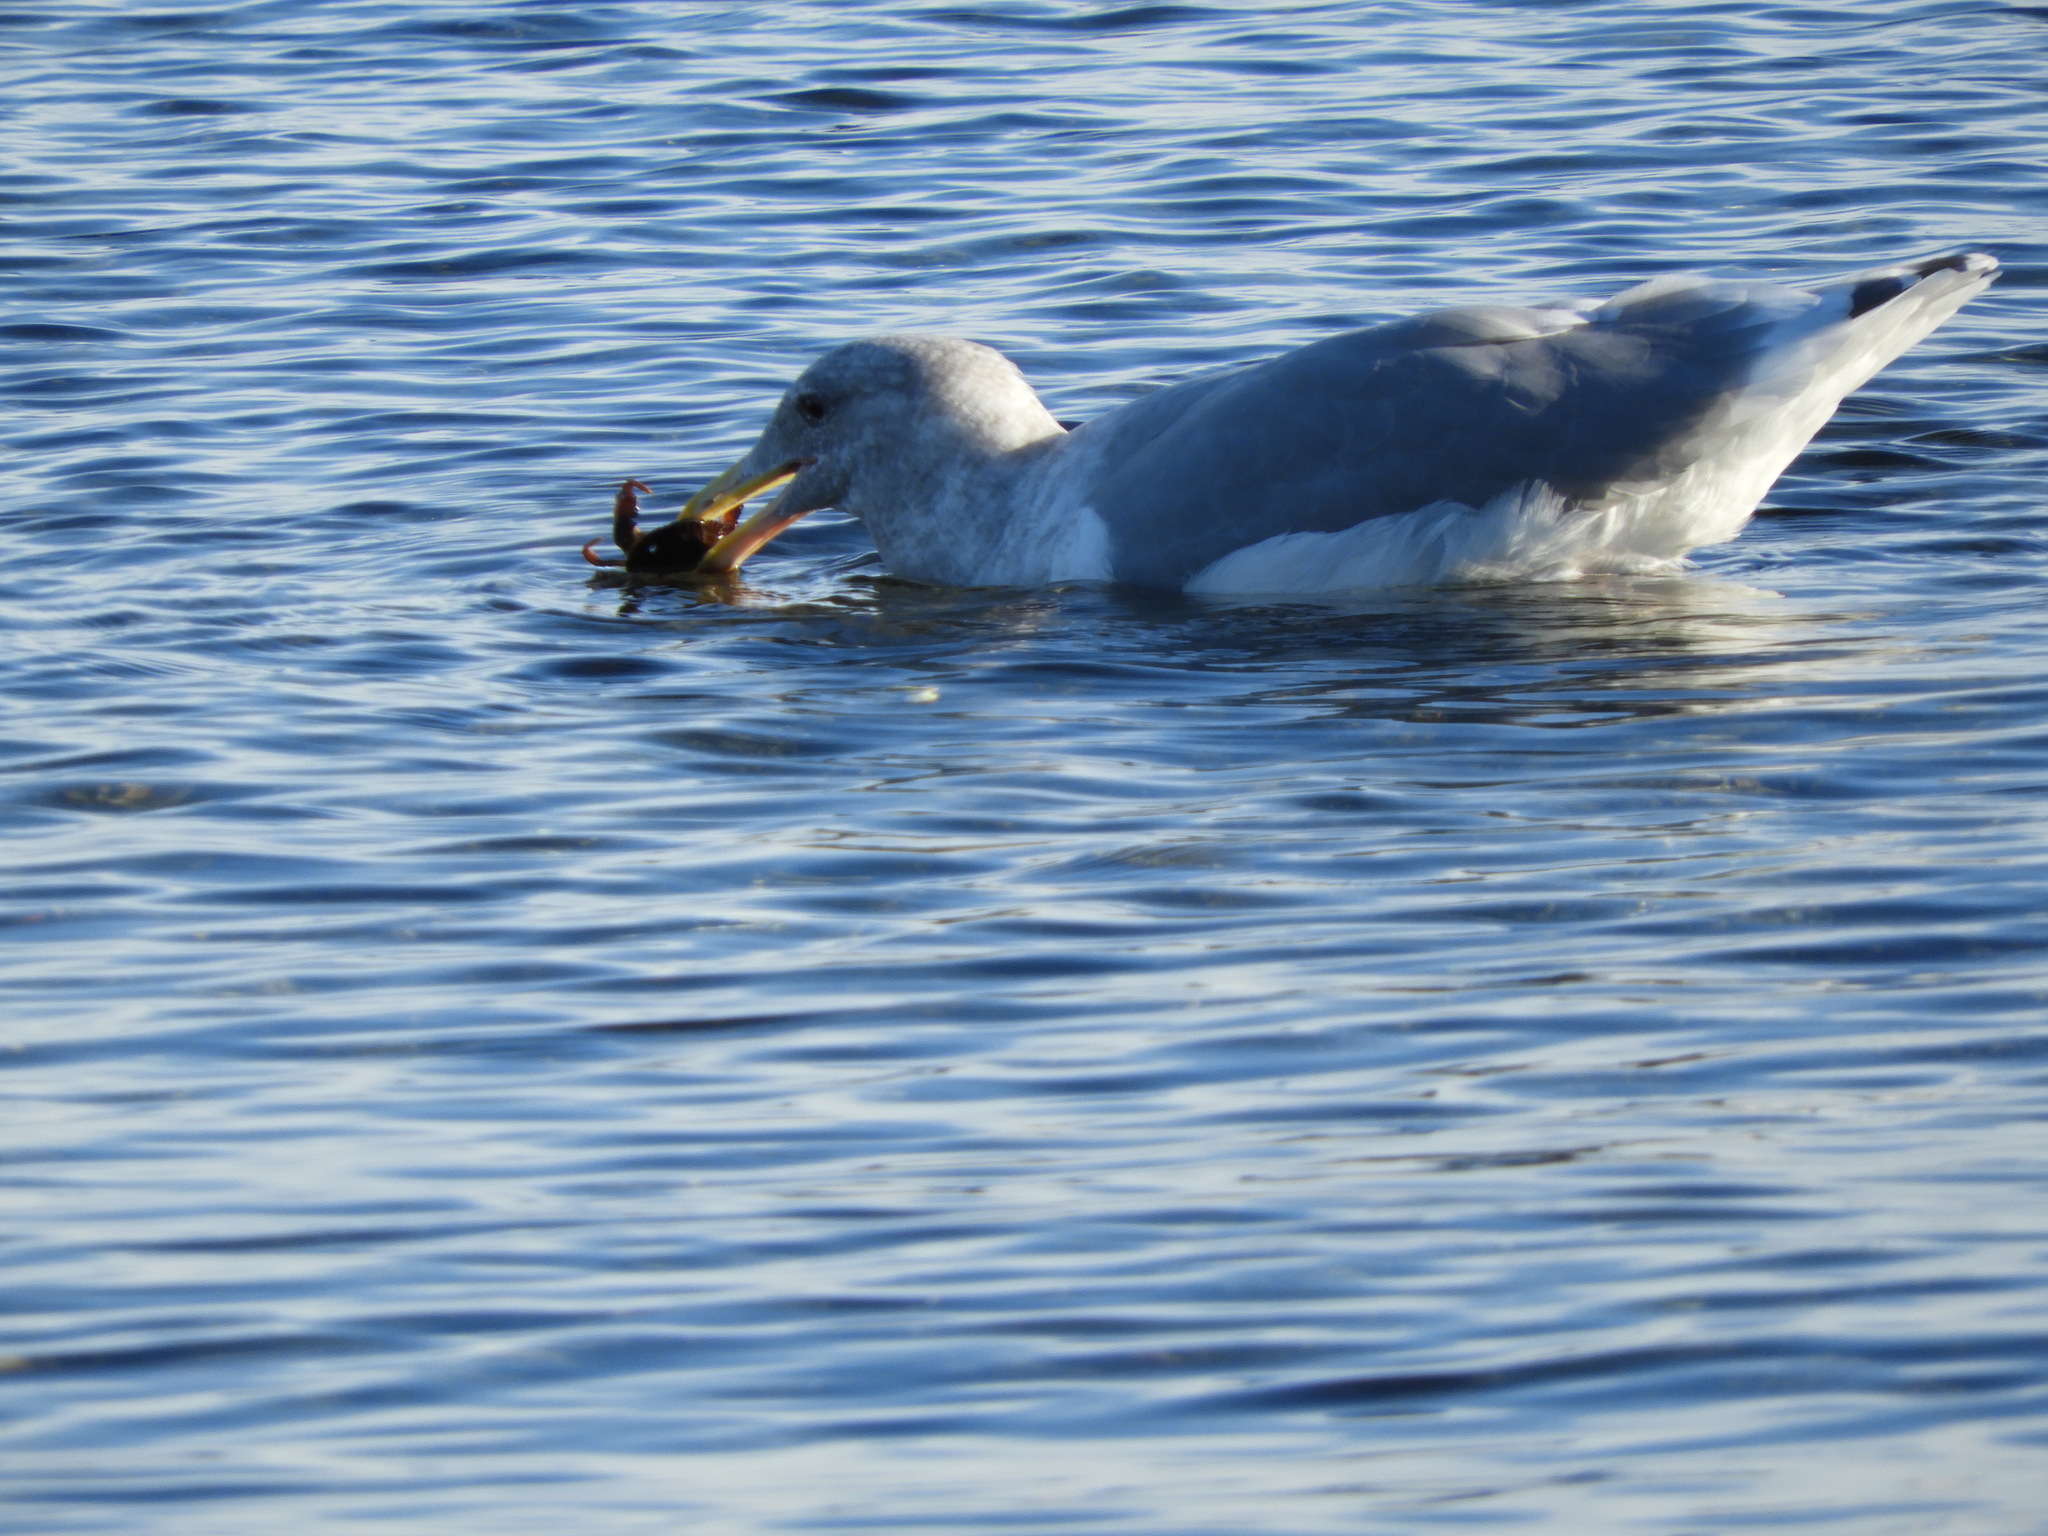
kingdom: Animalia
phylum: Chordata
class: Aves
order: Charadriiformes
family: Laridae
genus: Larus
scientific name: Larus
